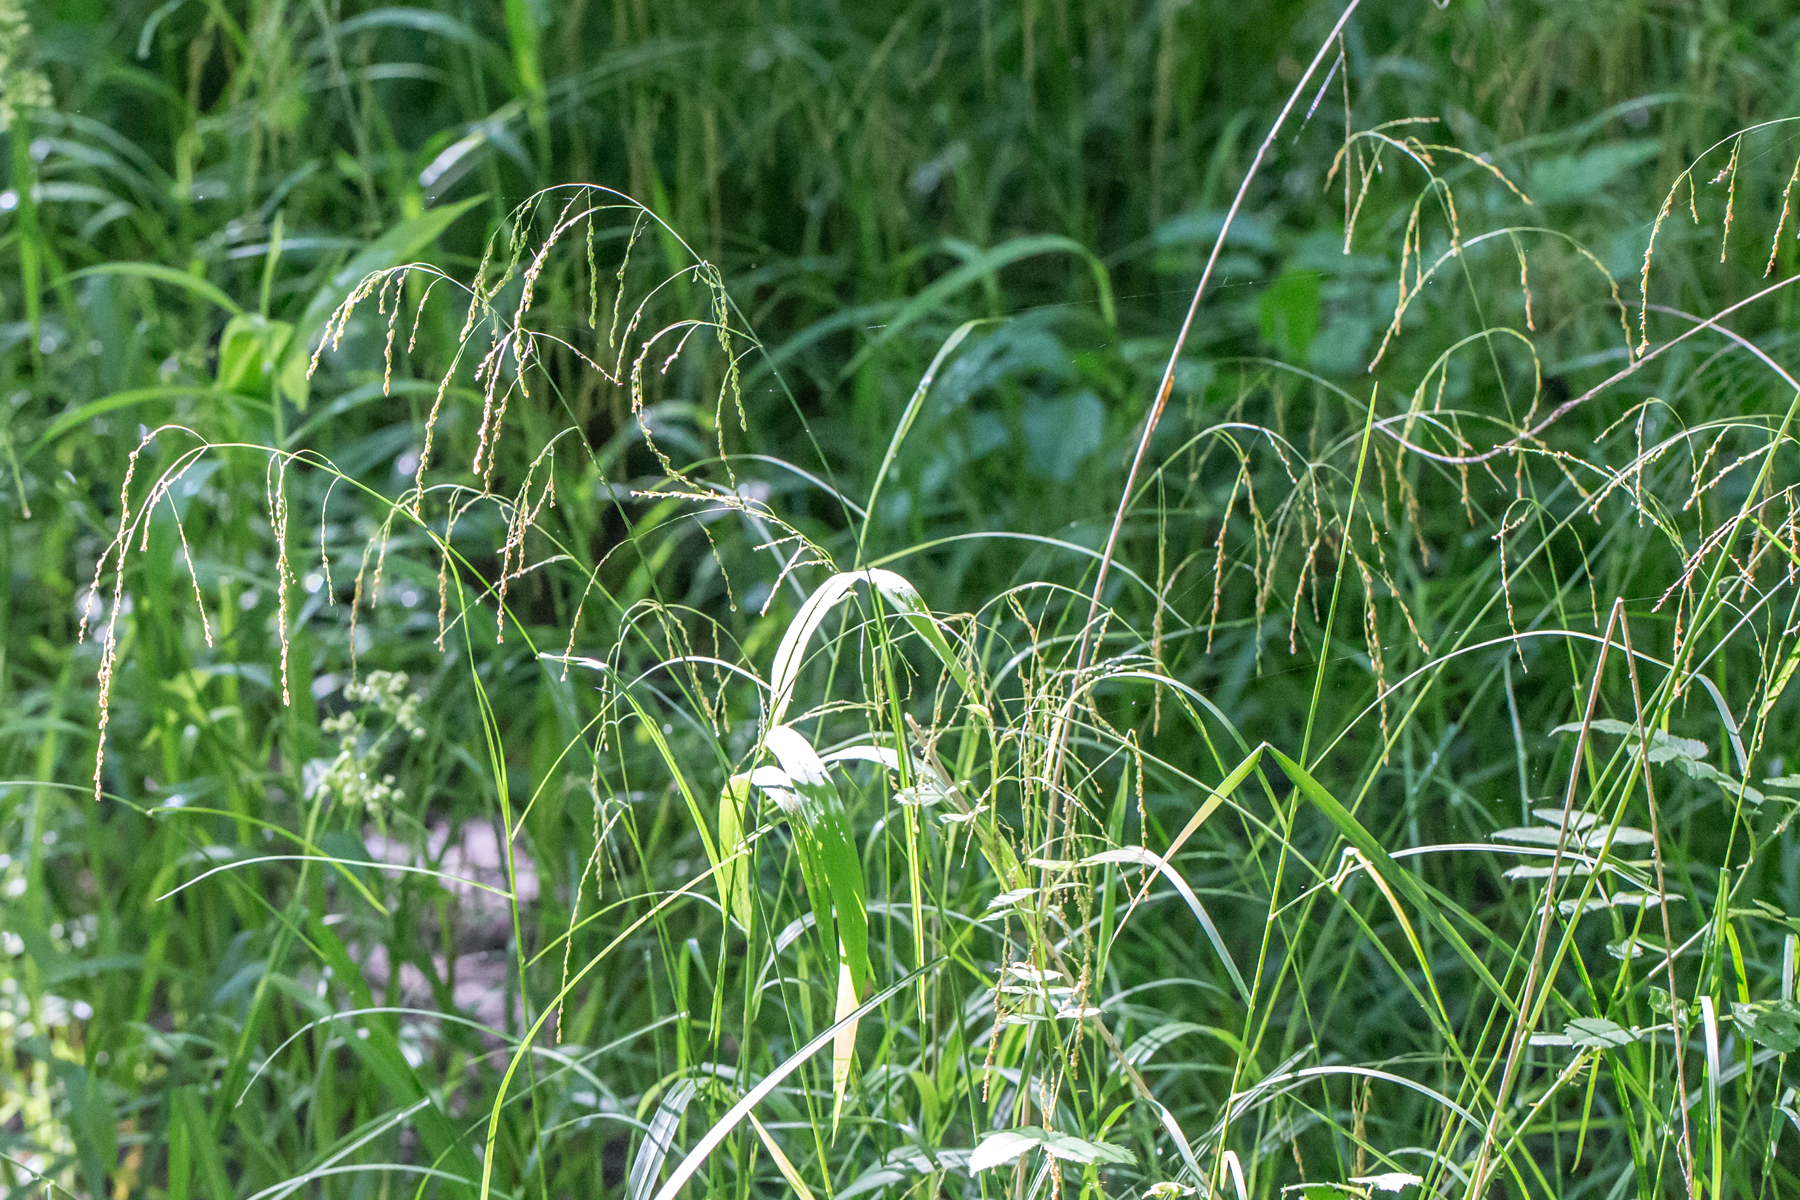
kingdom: Plantae
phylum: Tracheophyta
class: Liliopsida
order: Poales
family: Poaceae
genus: Glyceria
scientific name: Glyceria striata
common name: Fowl manna grass
